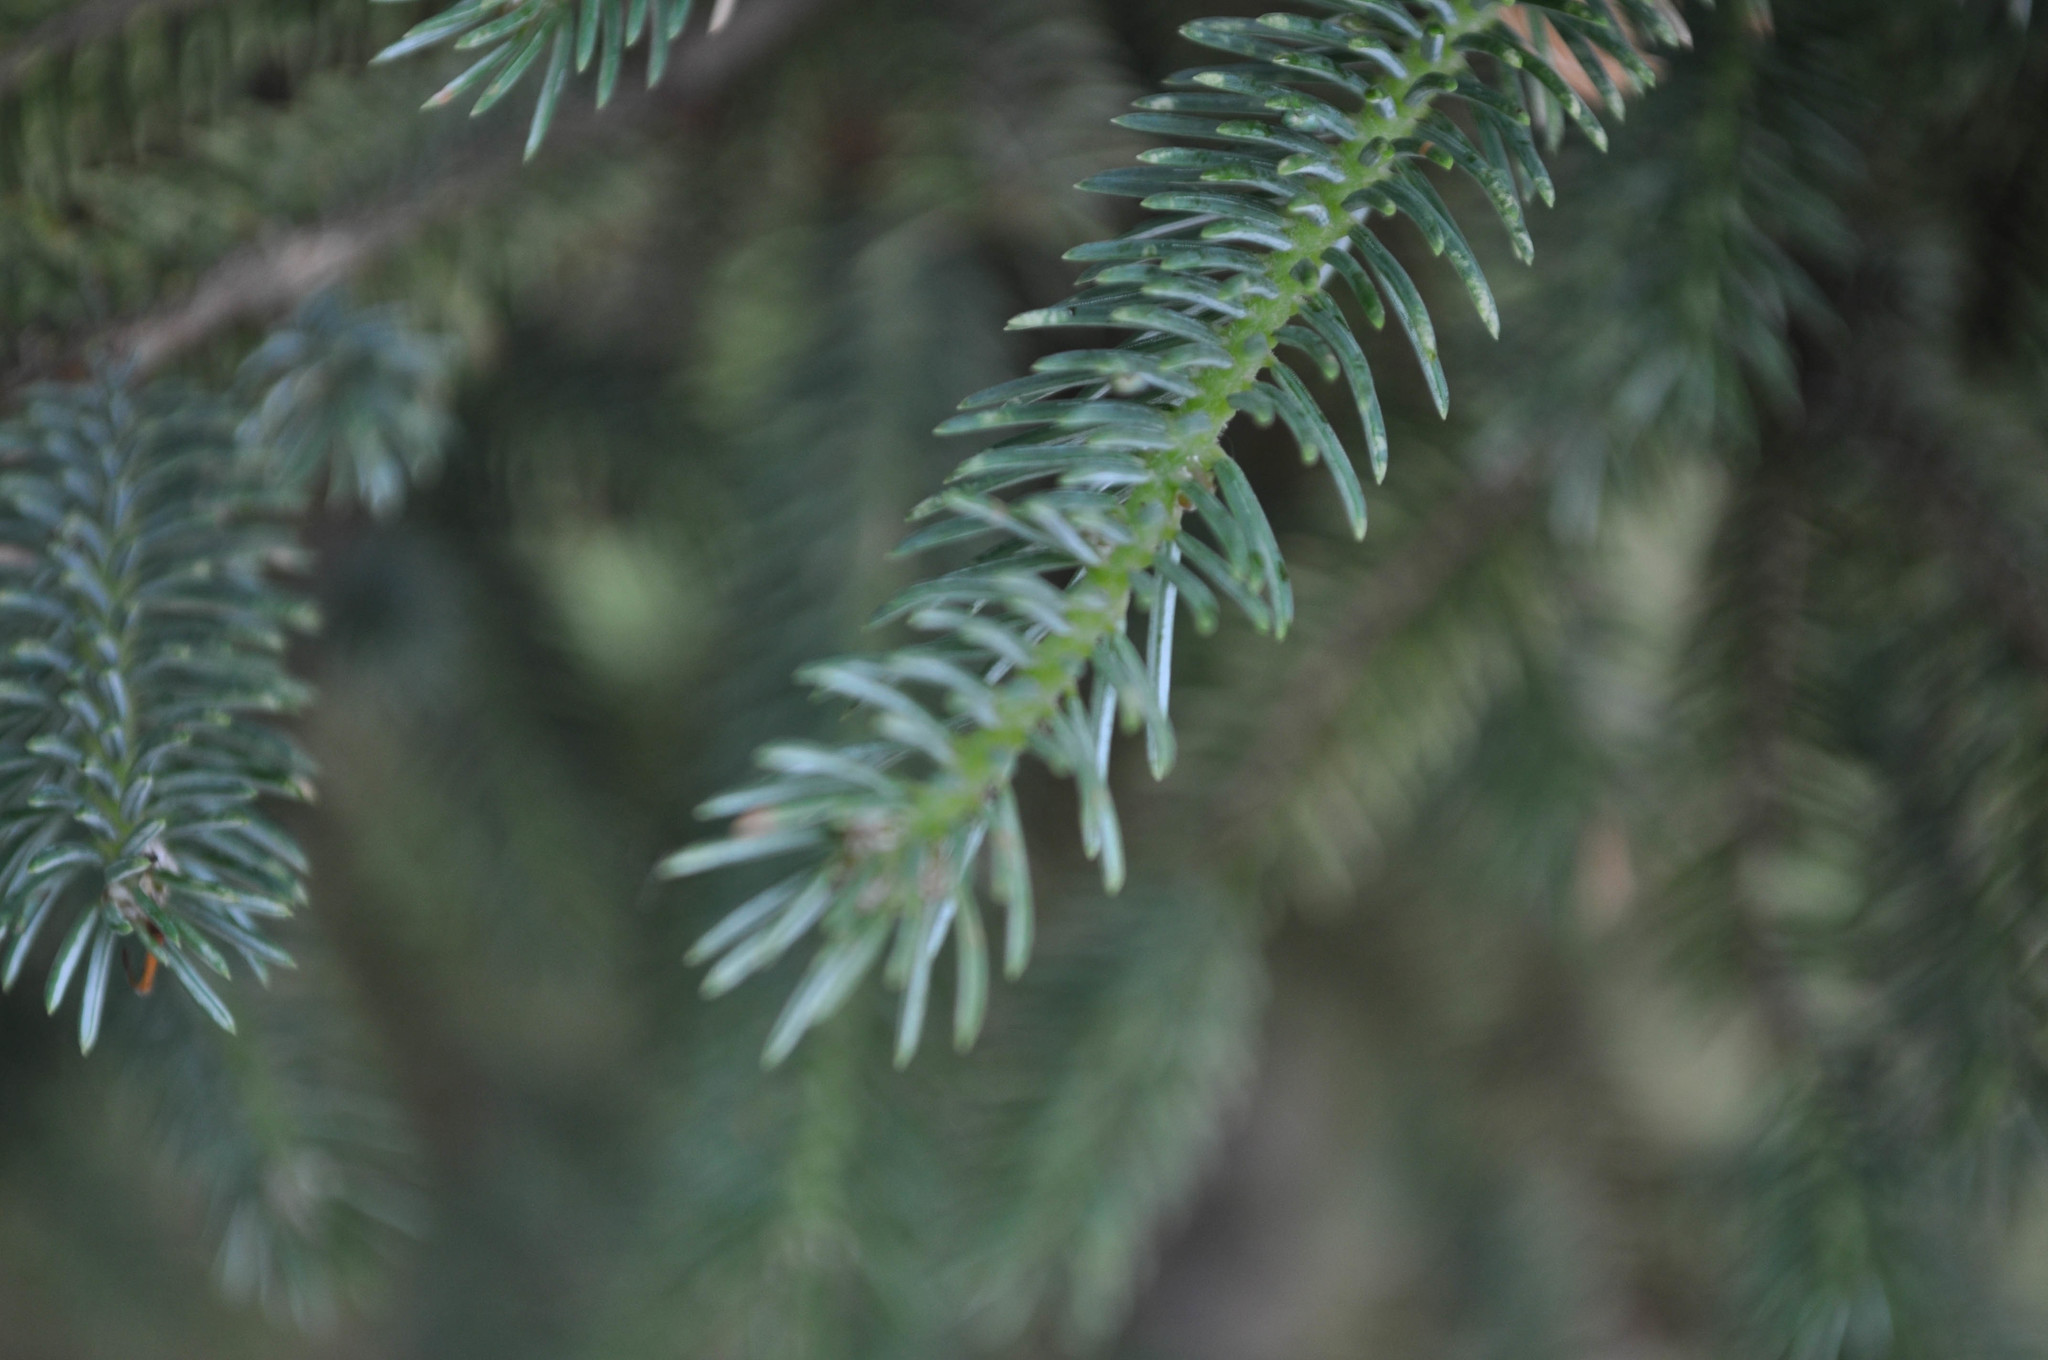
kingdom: Plantae
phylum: Tracheophyta
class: Pinopsida
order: Pinales
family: Pinaceae
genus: Picea
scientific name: Picea likiangensis
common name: Likiang spruce
